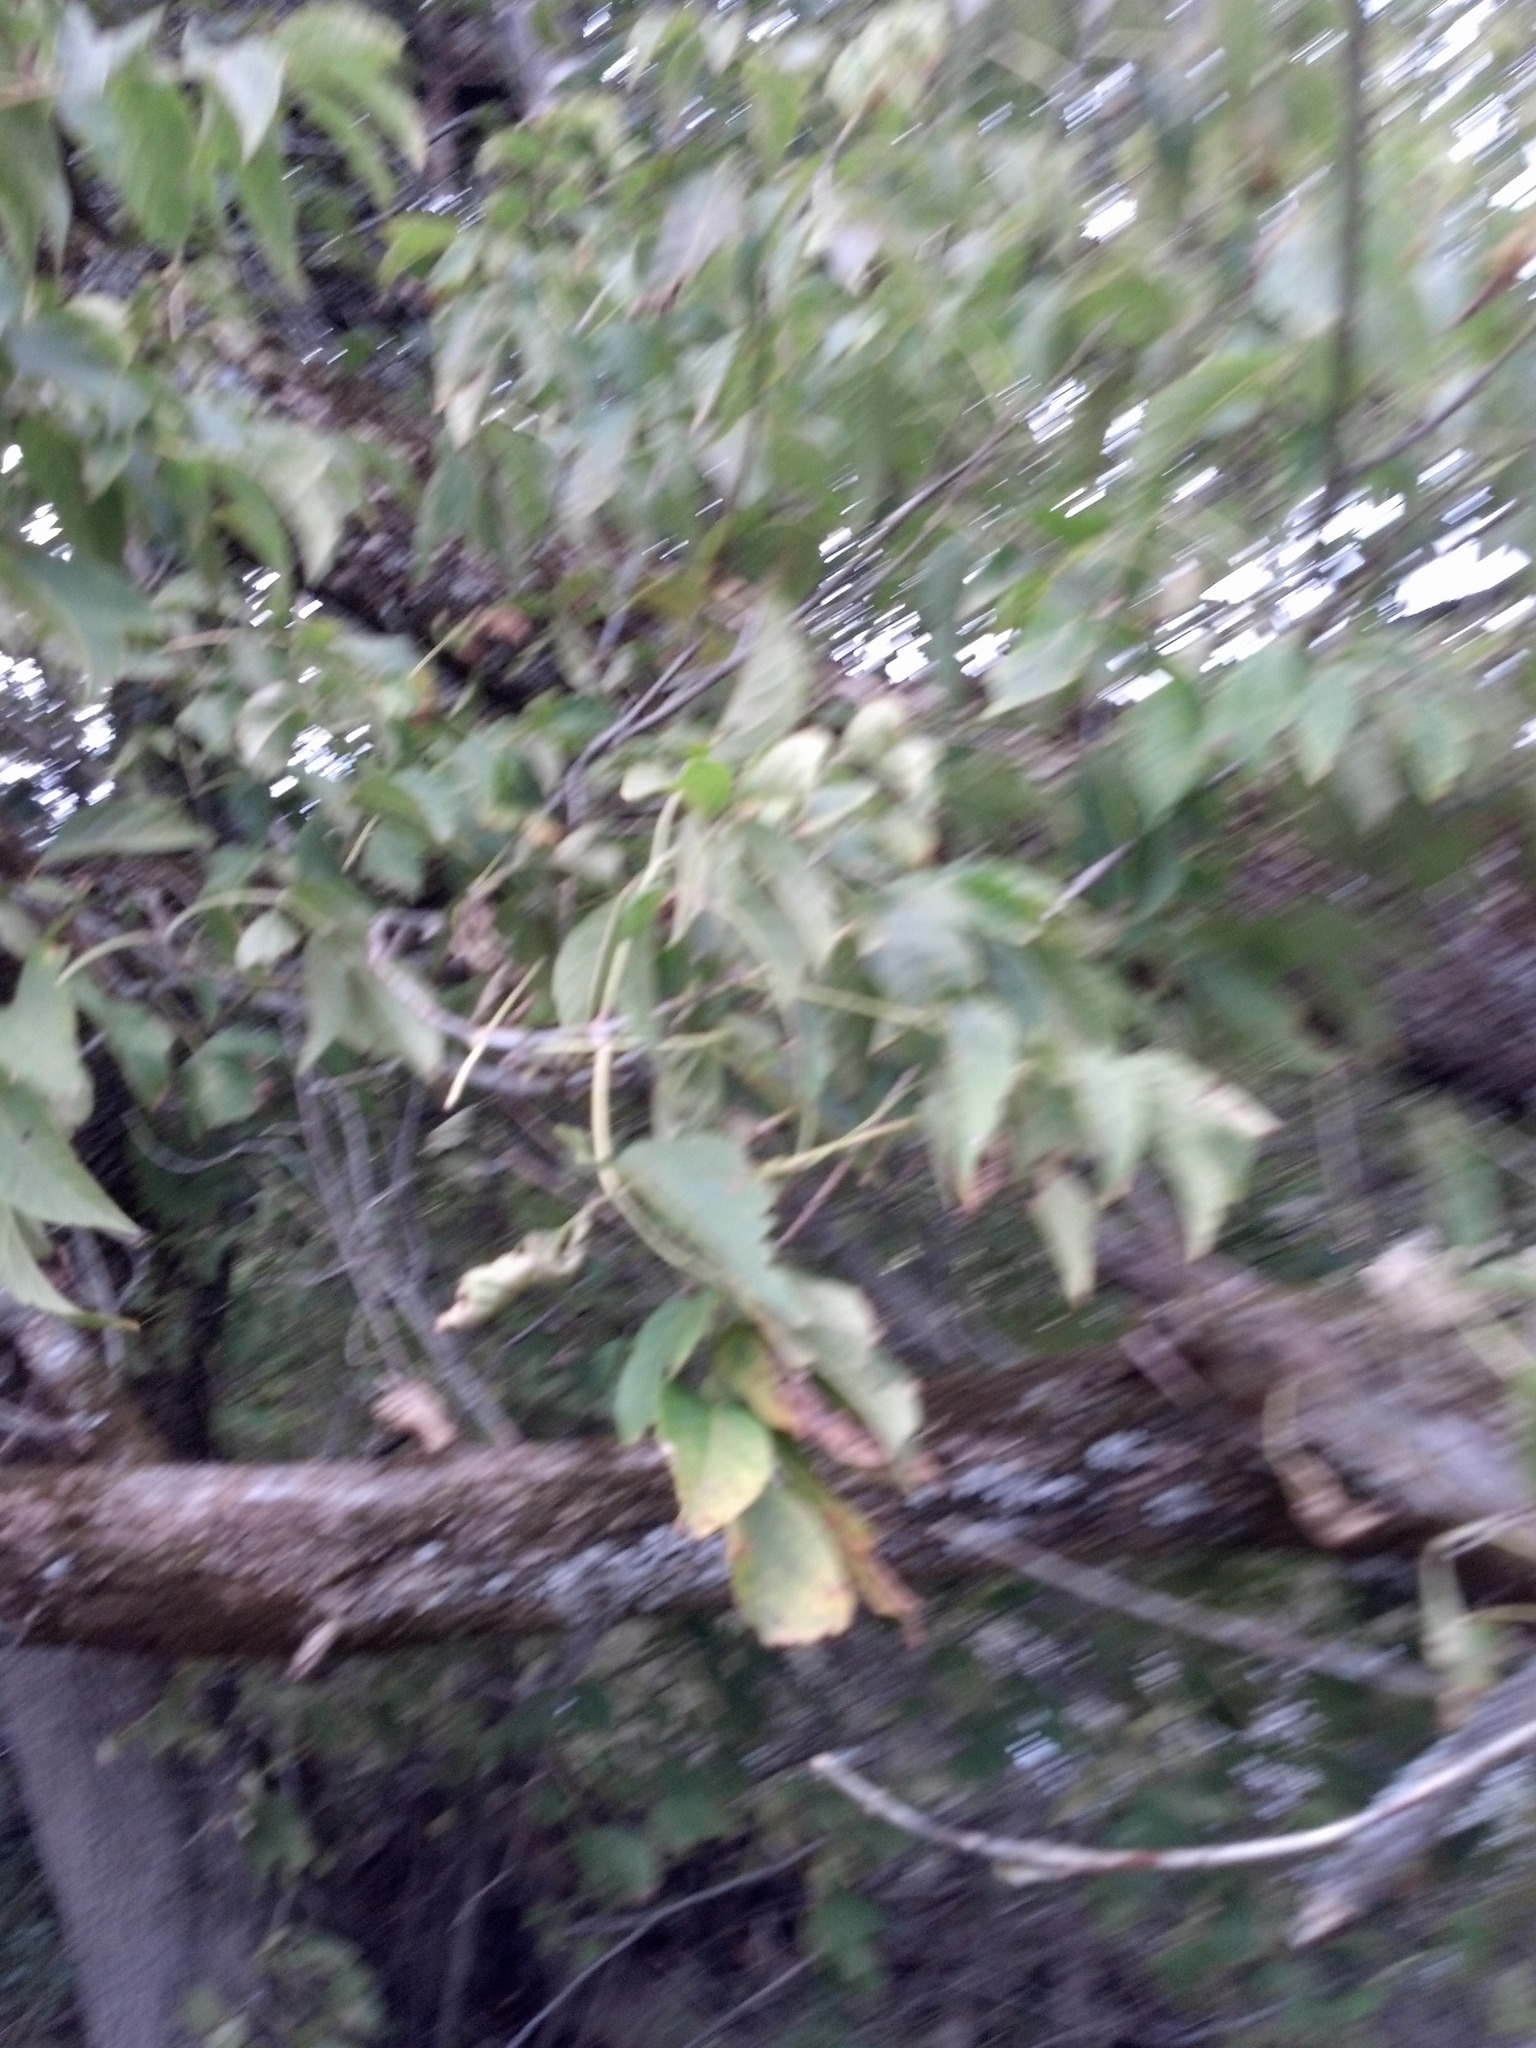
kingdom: Plantae
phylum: Tracheophyta
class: Magnoliopsida
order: Sapindales
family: Sapindaceae
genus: Acer
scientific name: Acer negundo
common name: Ashleaf maple
